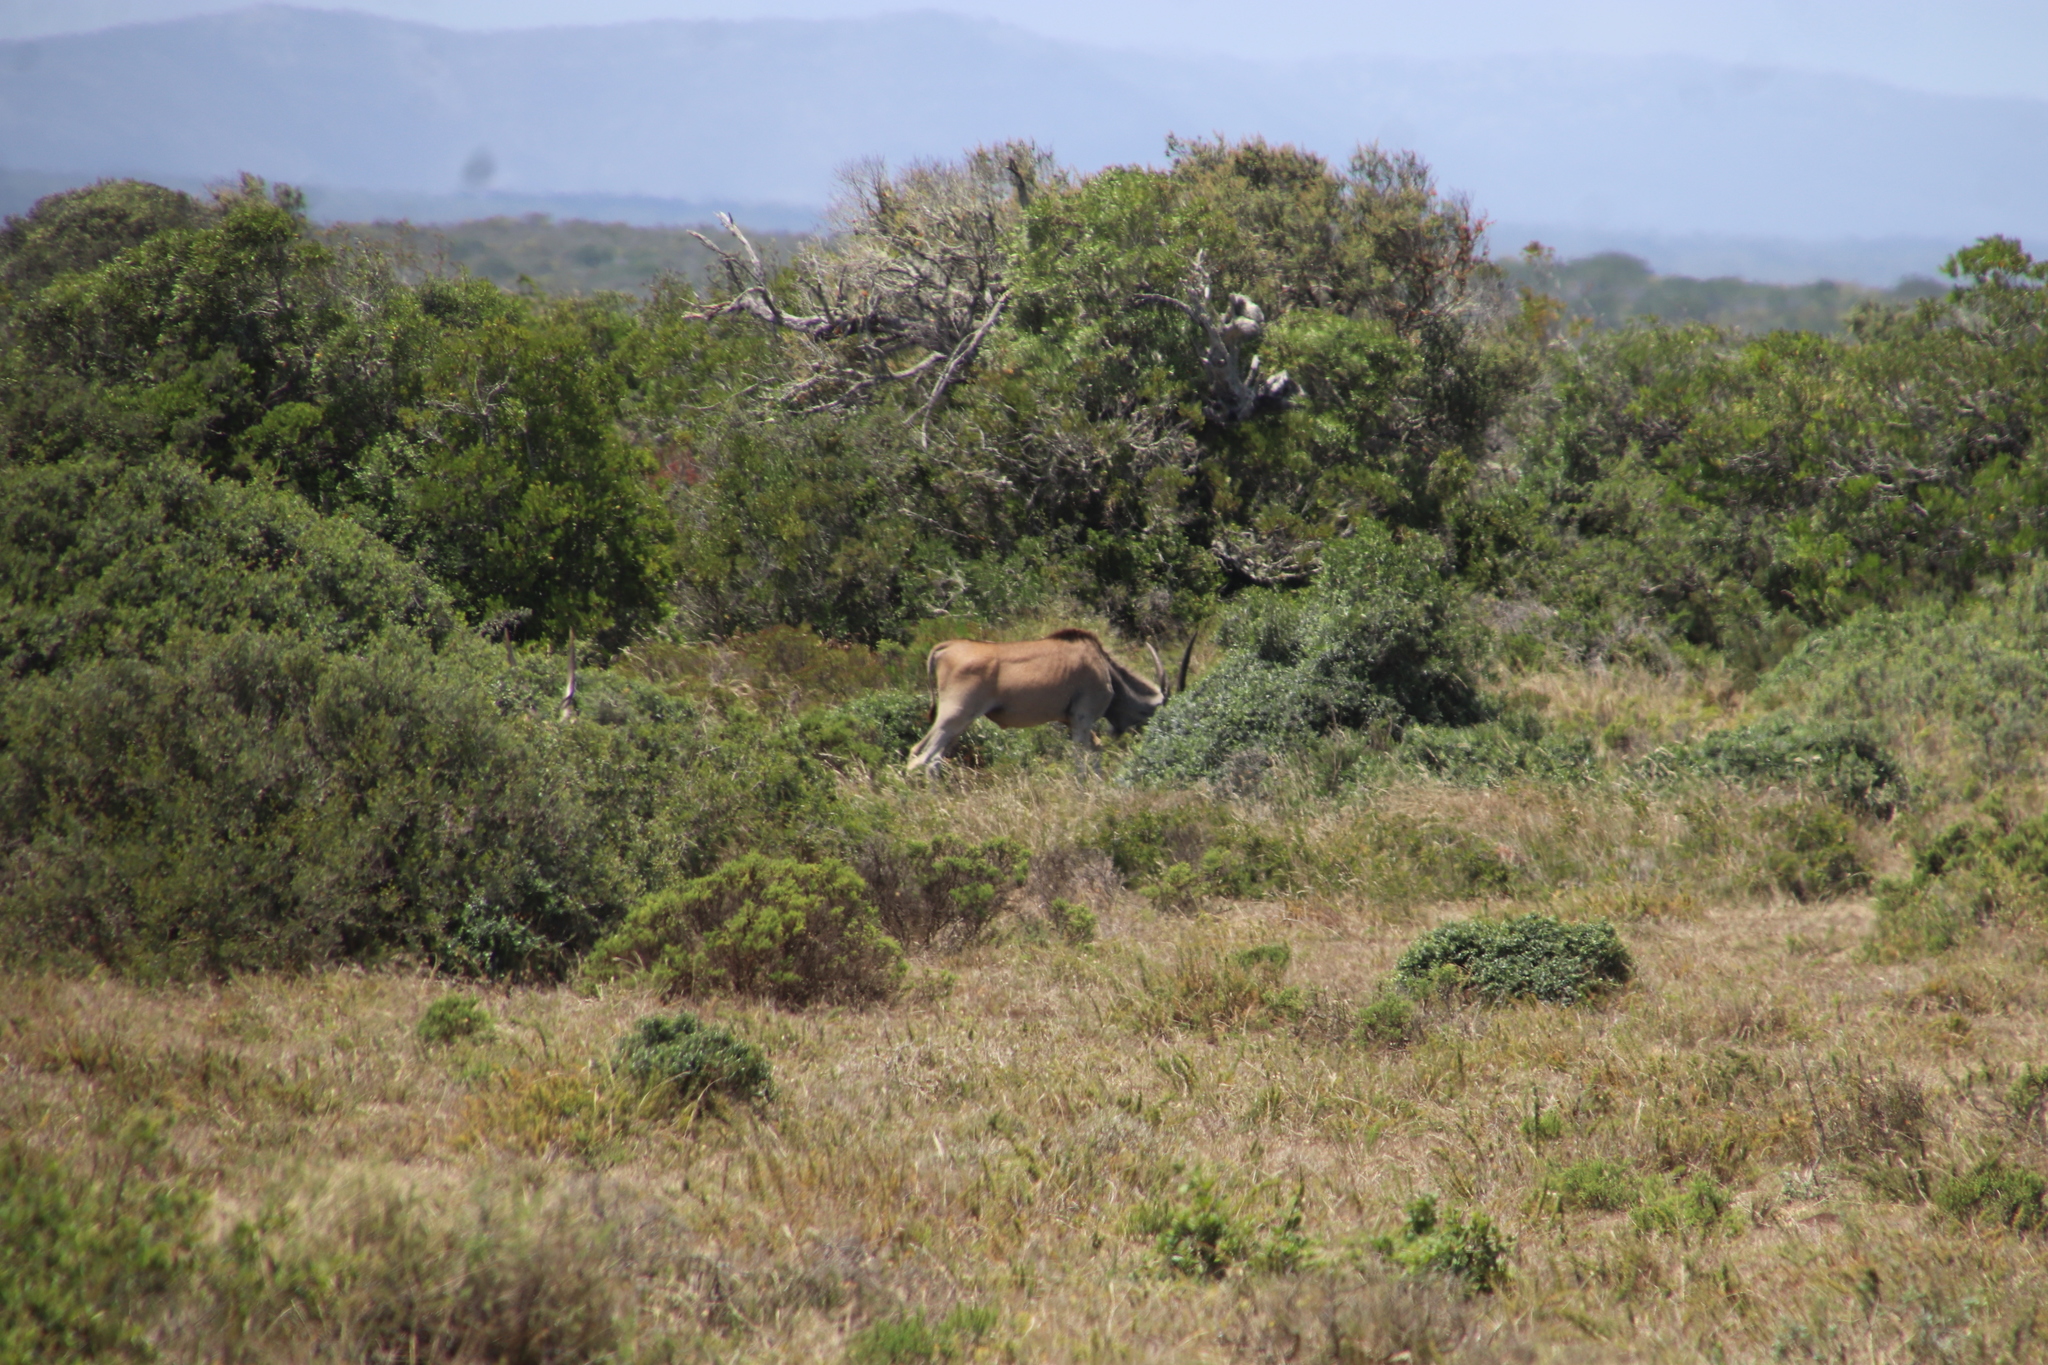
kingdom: Animalia
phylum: Chordata
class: Mammalia
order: Artiodactyla
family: Bovidae
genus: Taurotragus
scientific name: Taurotragus oryx
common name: Common eland
